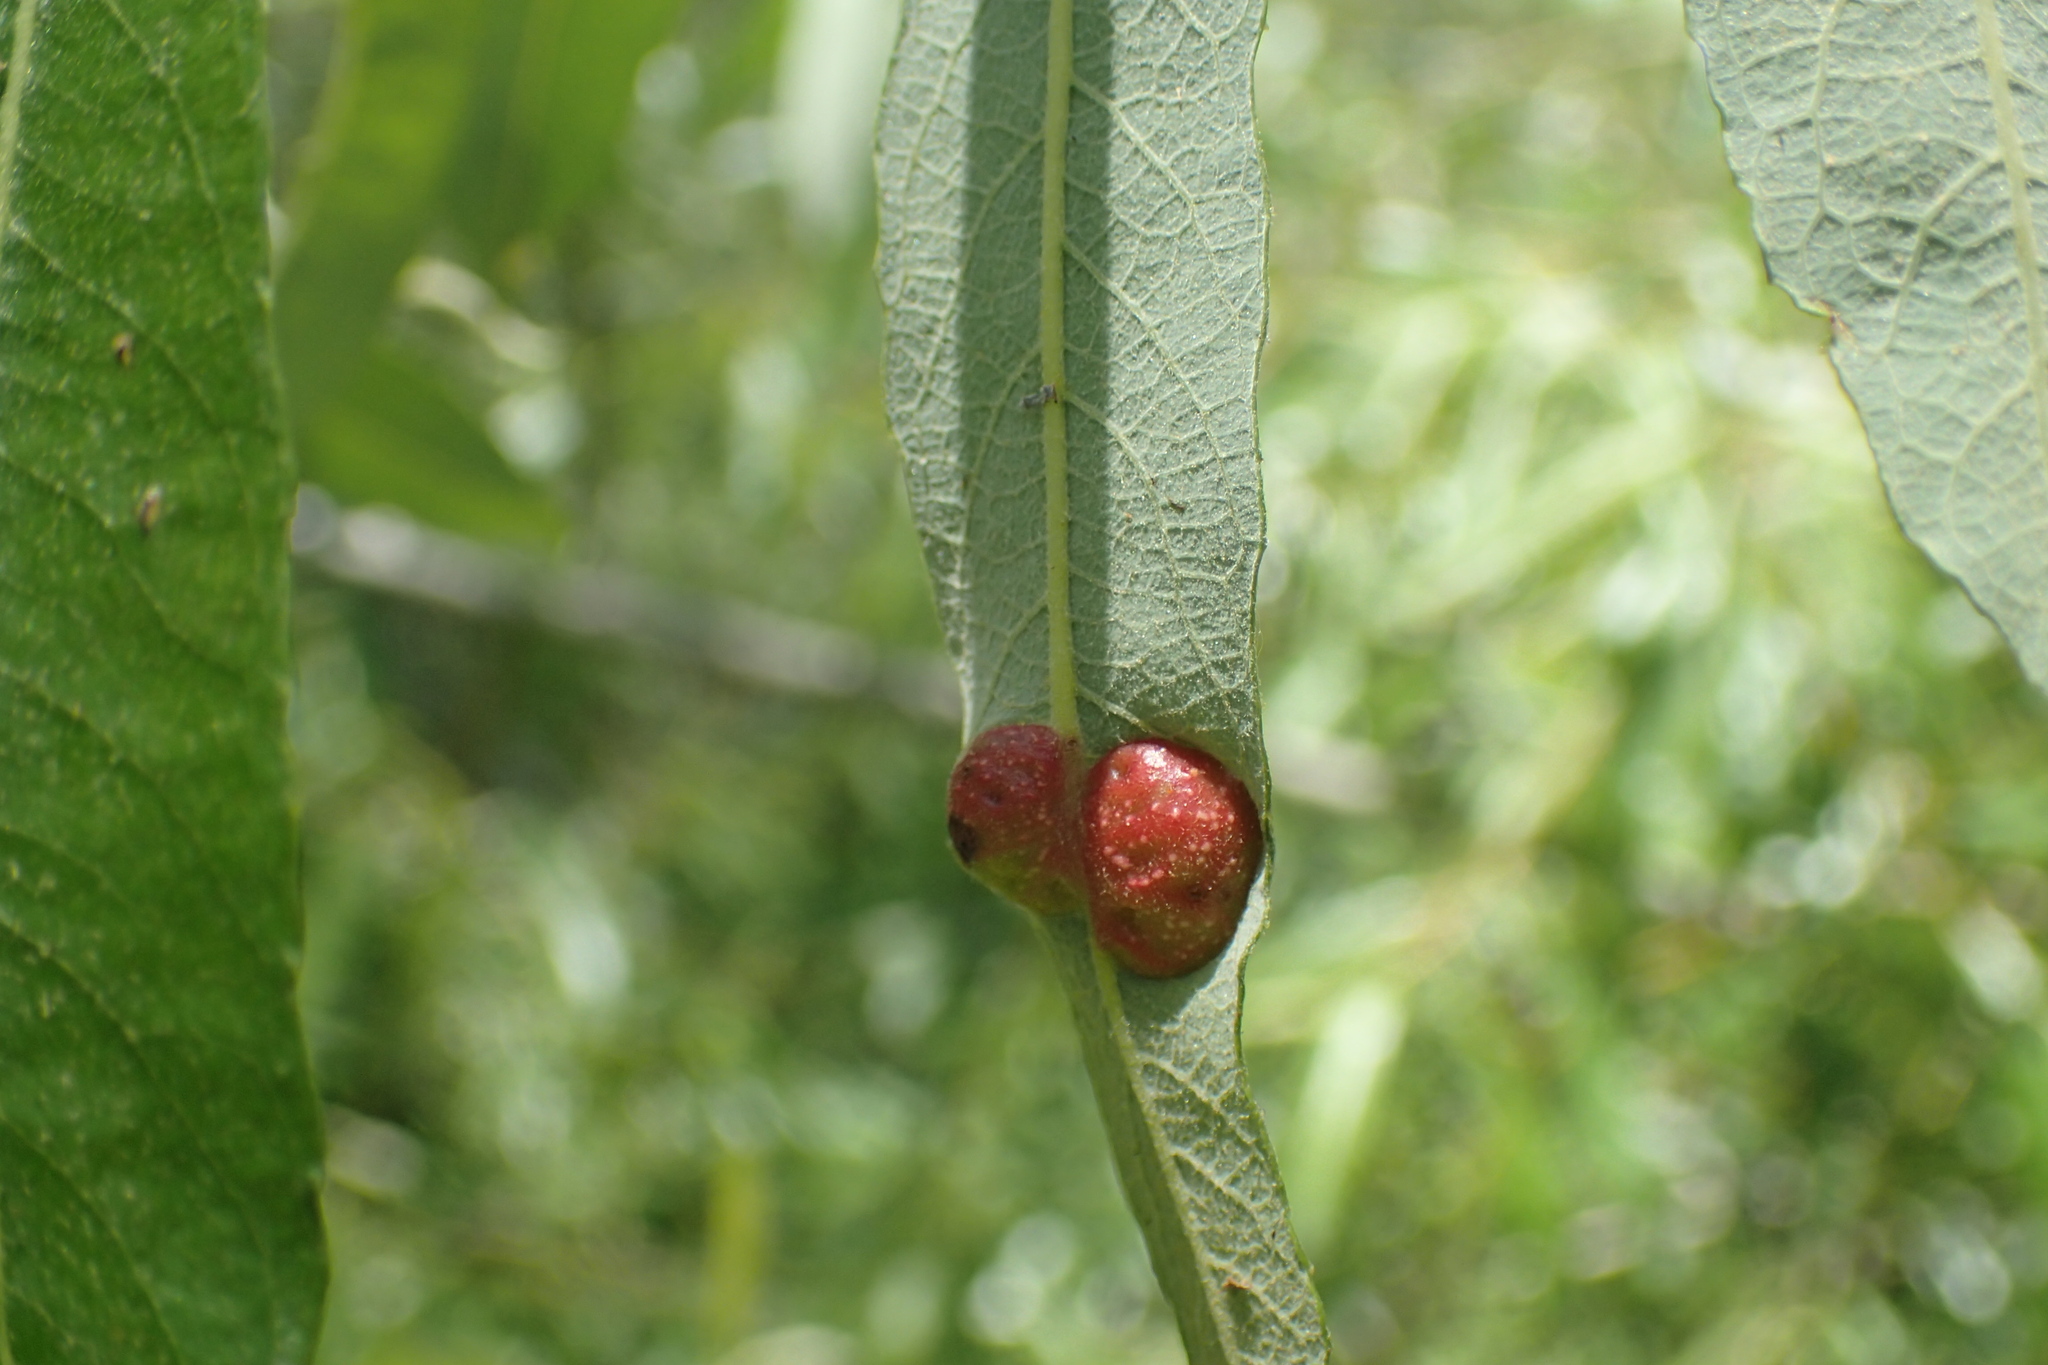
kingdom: Animalia
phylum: Arthropoda
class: Insecta
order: Hymenoptera
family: Tenthredinidae
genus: Euura
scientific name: Euura
